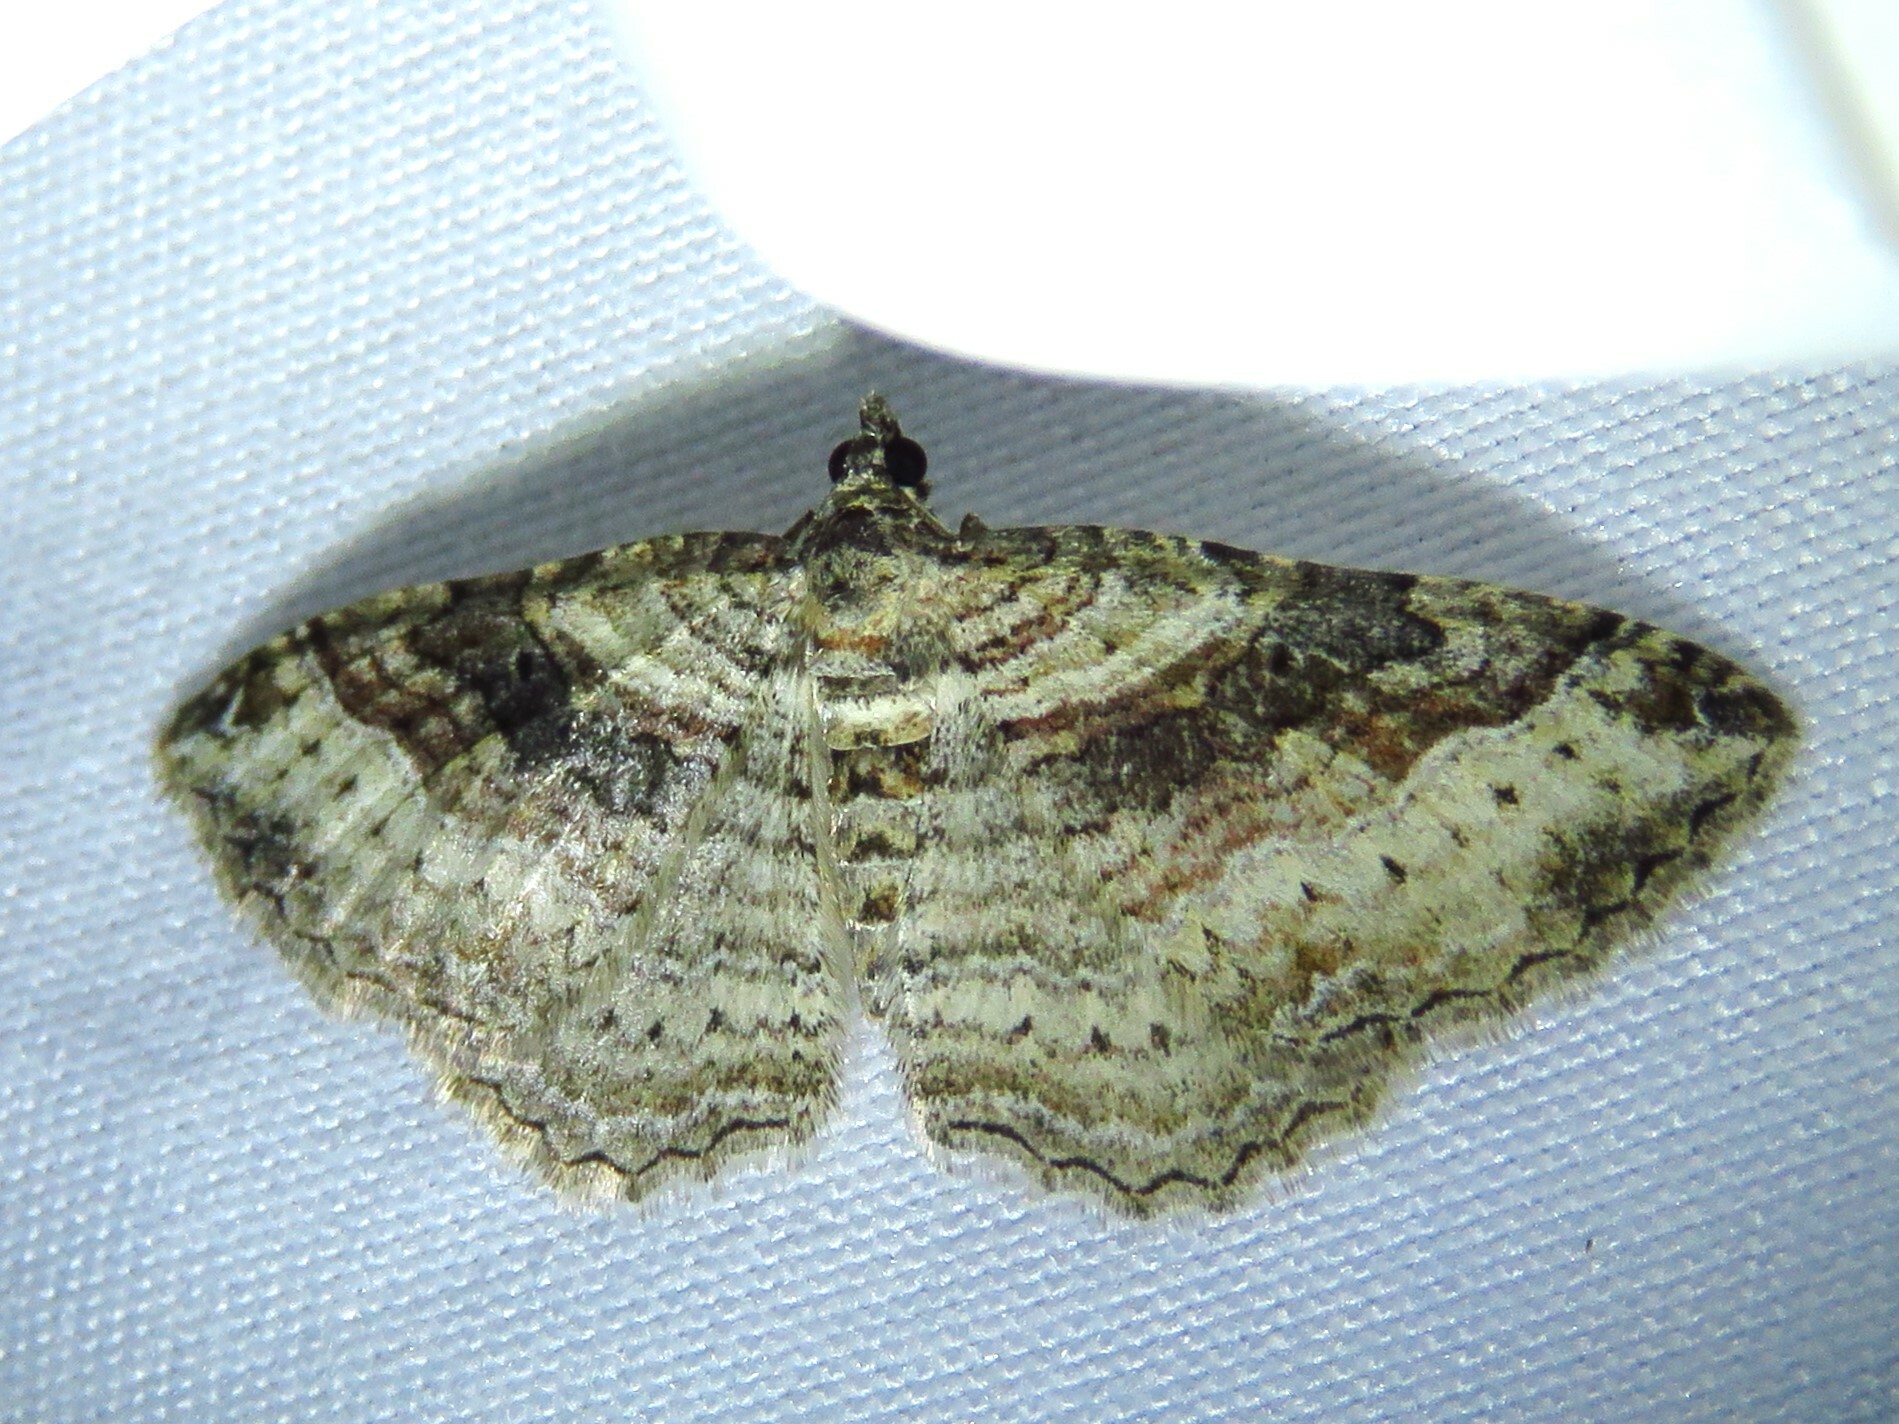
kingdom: Animalia
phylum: Arthropoda
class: Insecta
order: Lepidoptera
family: Geometridae
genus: Costaconvexa
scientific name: Costaconvexa centrostrigaria
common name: Bent-line carpet
